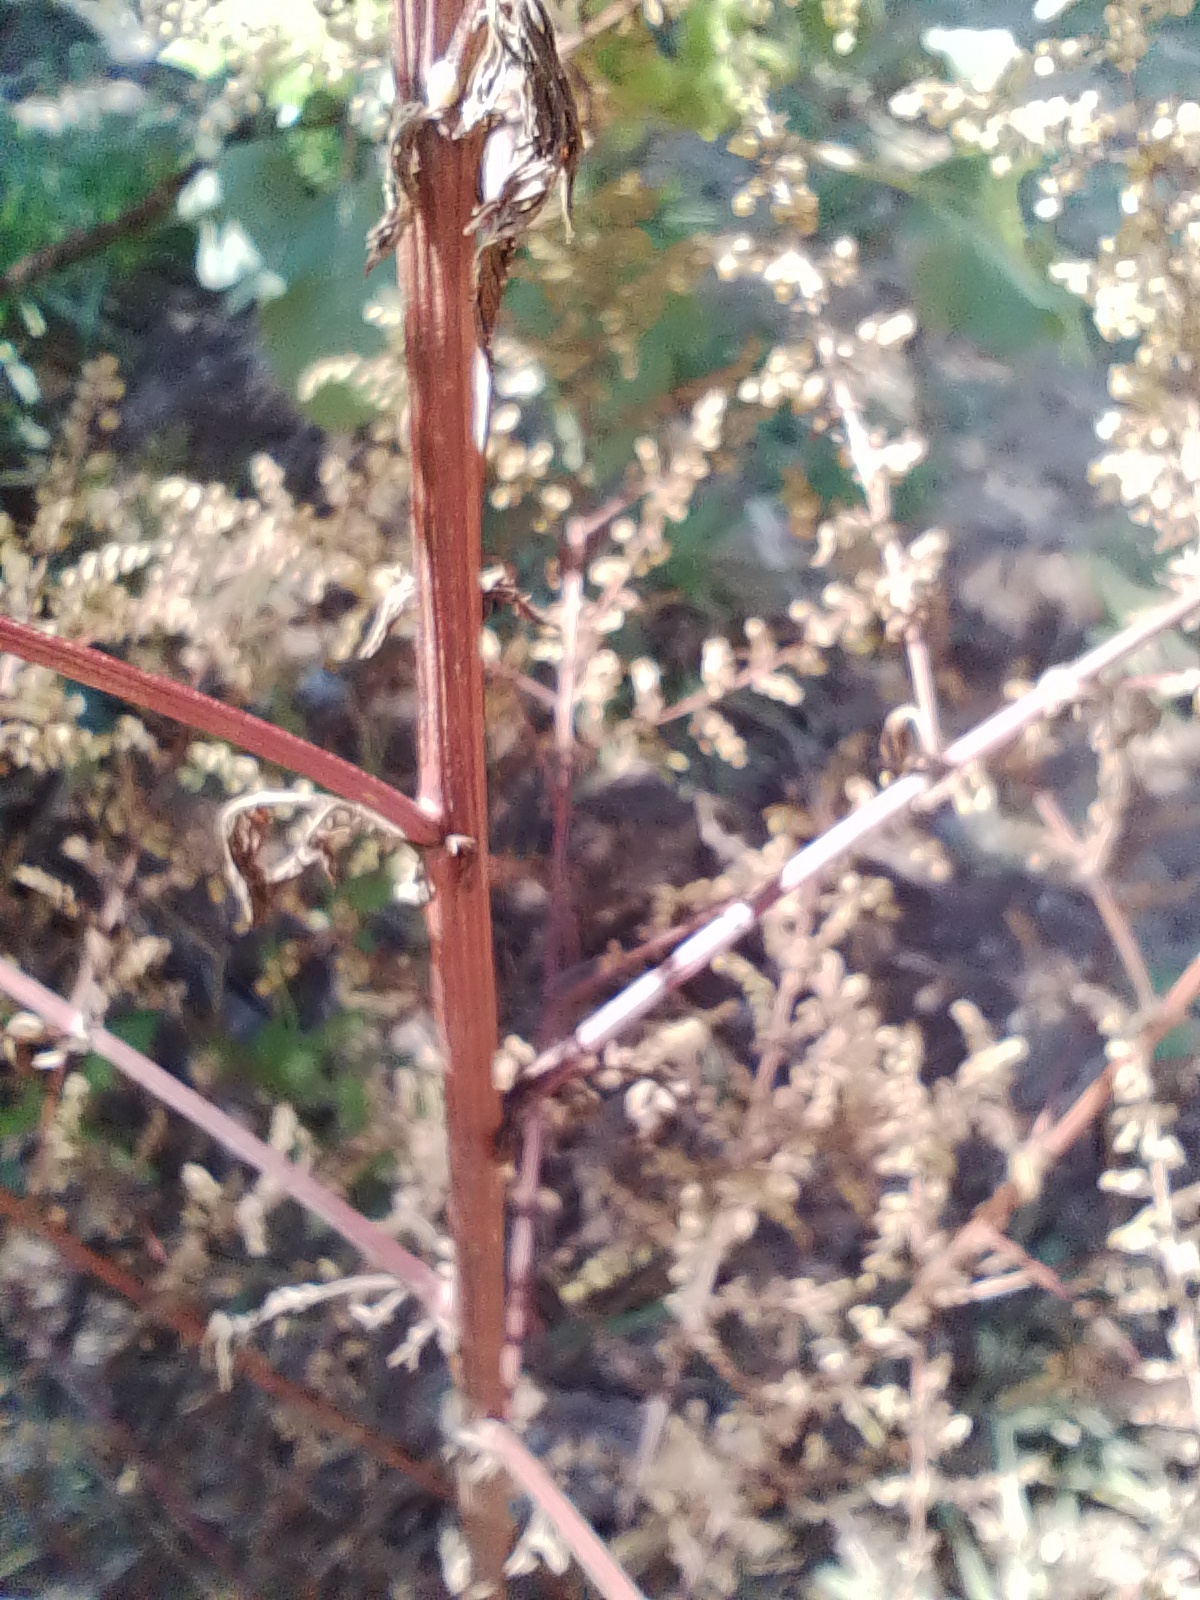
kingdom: Plantae
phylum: Tracheophyta
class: Magnoliopsida
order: Asterales
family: Asteraceae
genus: Artemisia
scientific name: Artemisia annua
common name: Sweet sagewort
